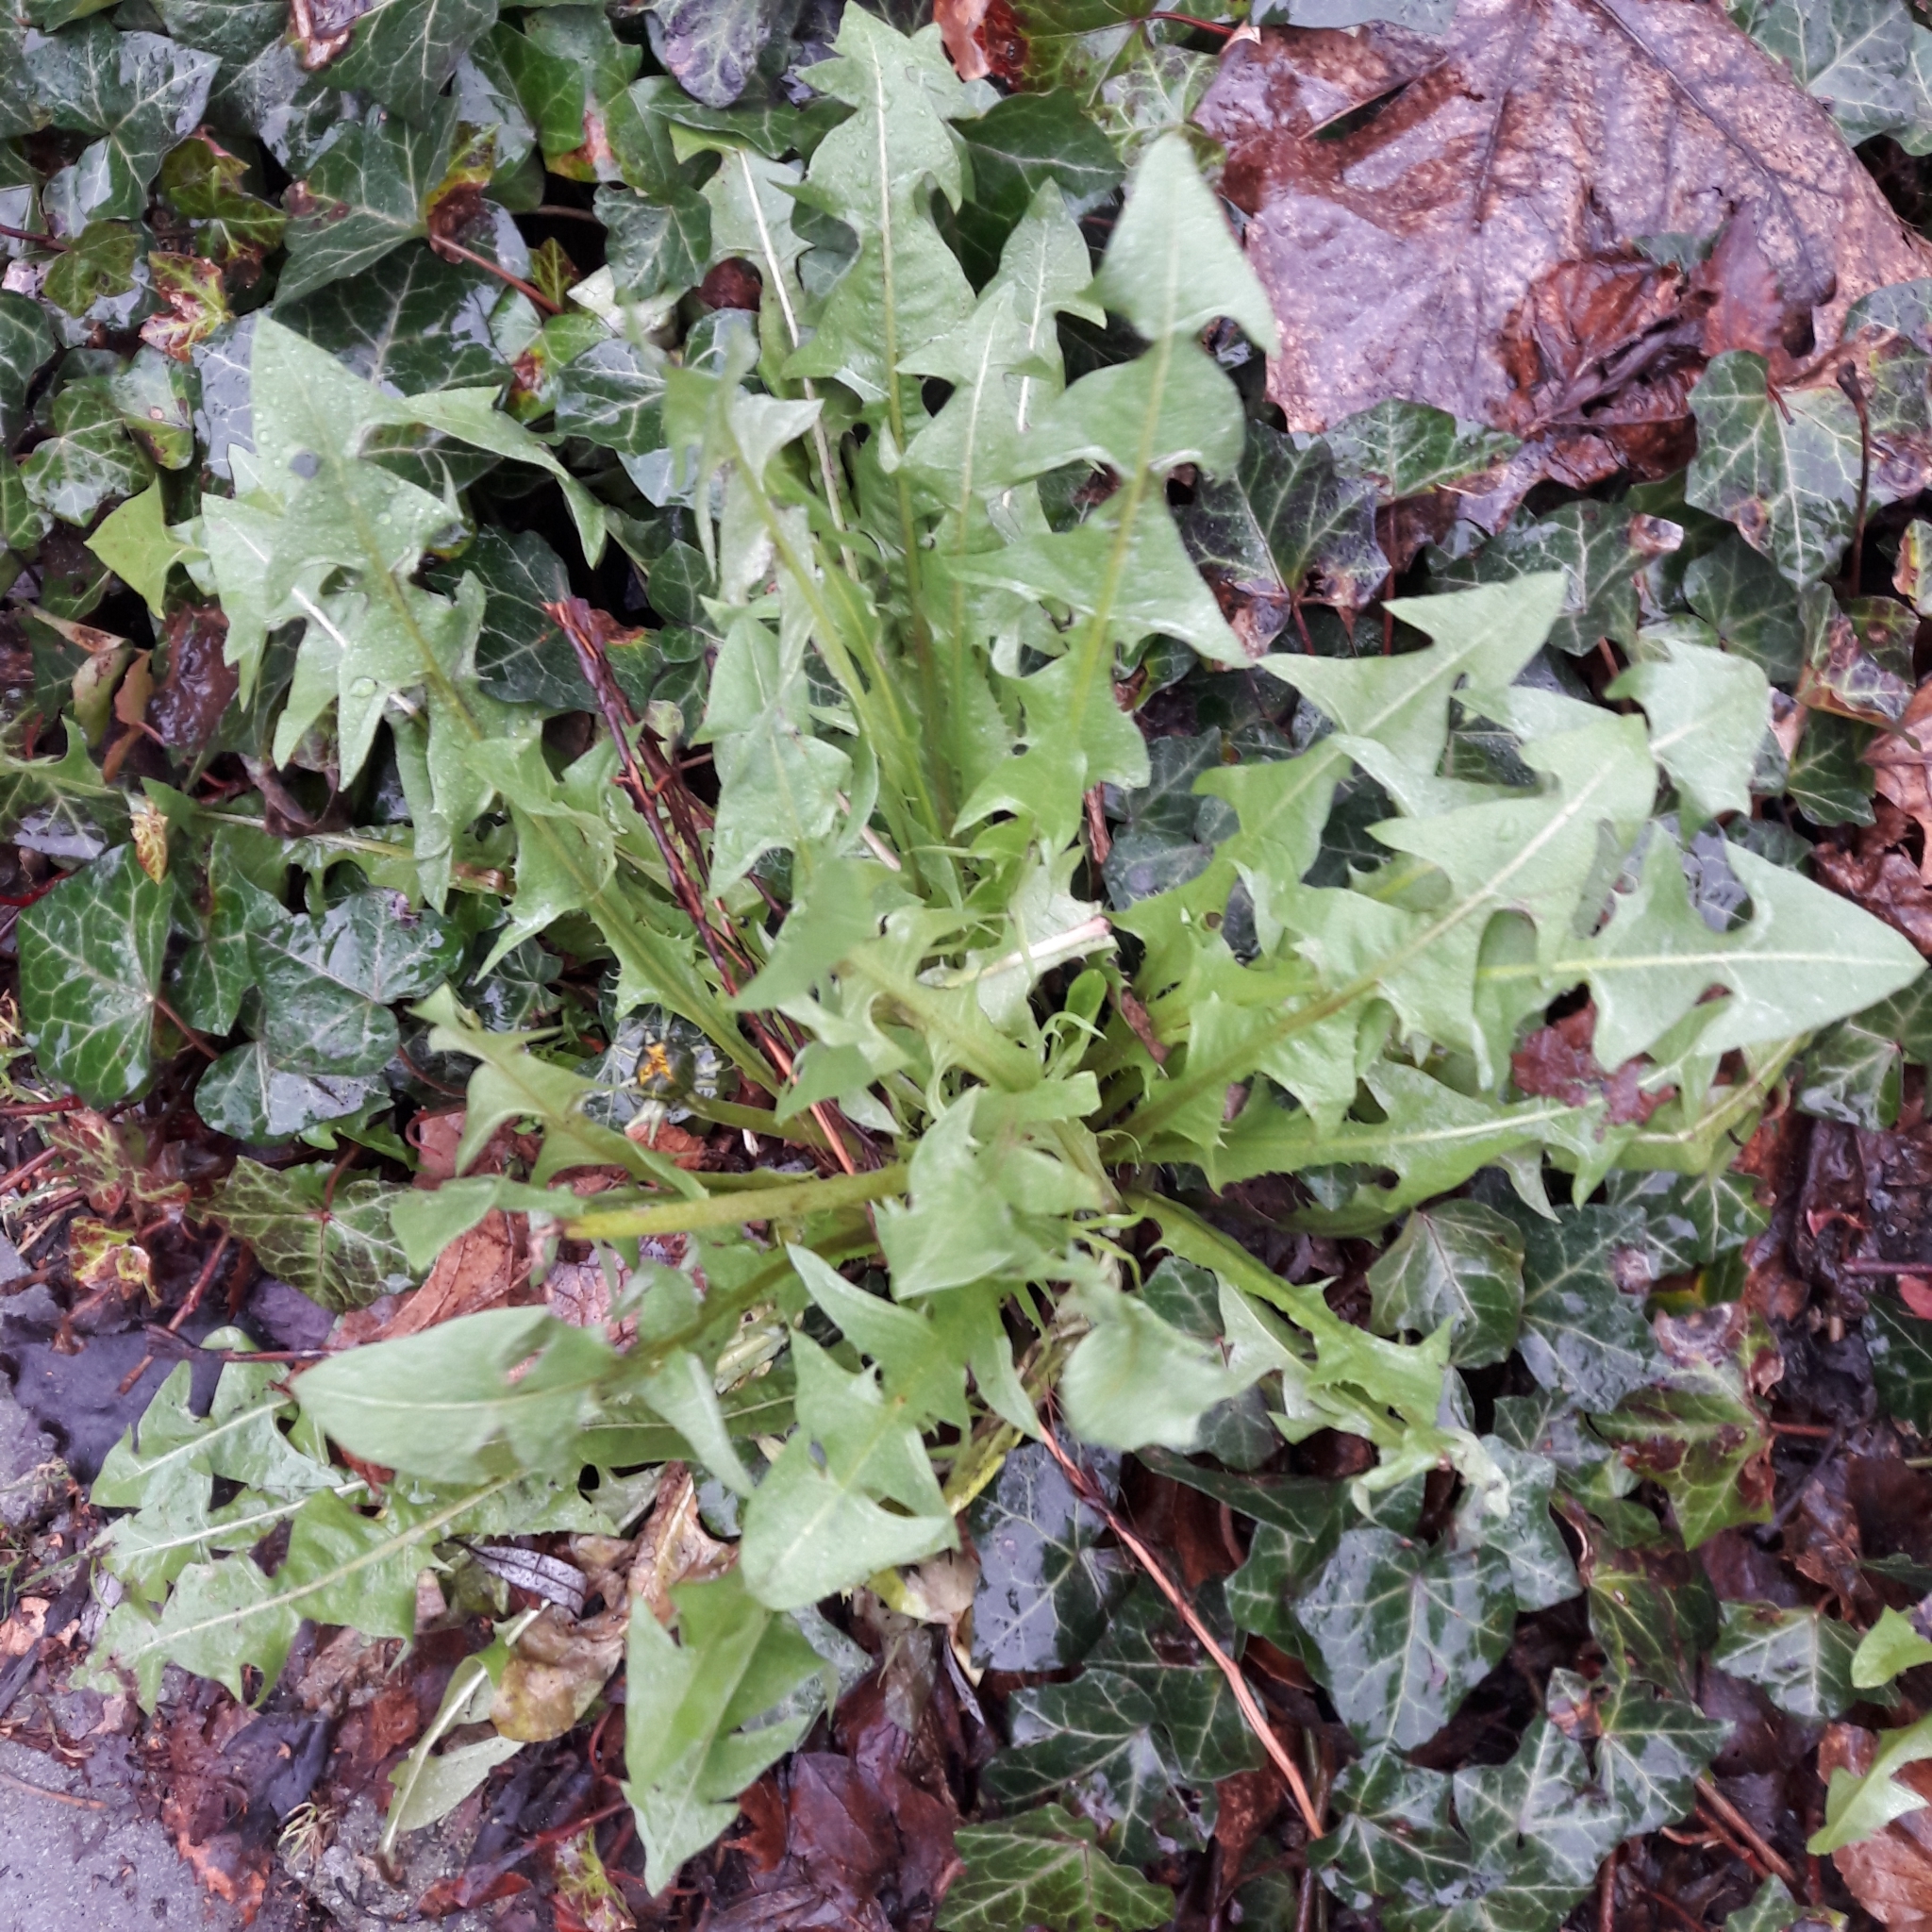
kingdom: Plantae
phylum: Tracheophyta
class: Magnoliopsida
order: Asterales
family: Asteraceae
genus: Taraxacum
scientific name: Taraxacum officinale
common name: Common dandelion
